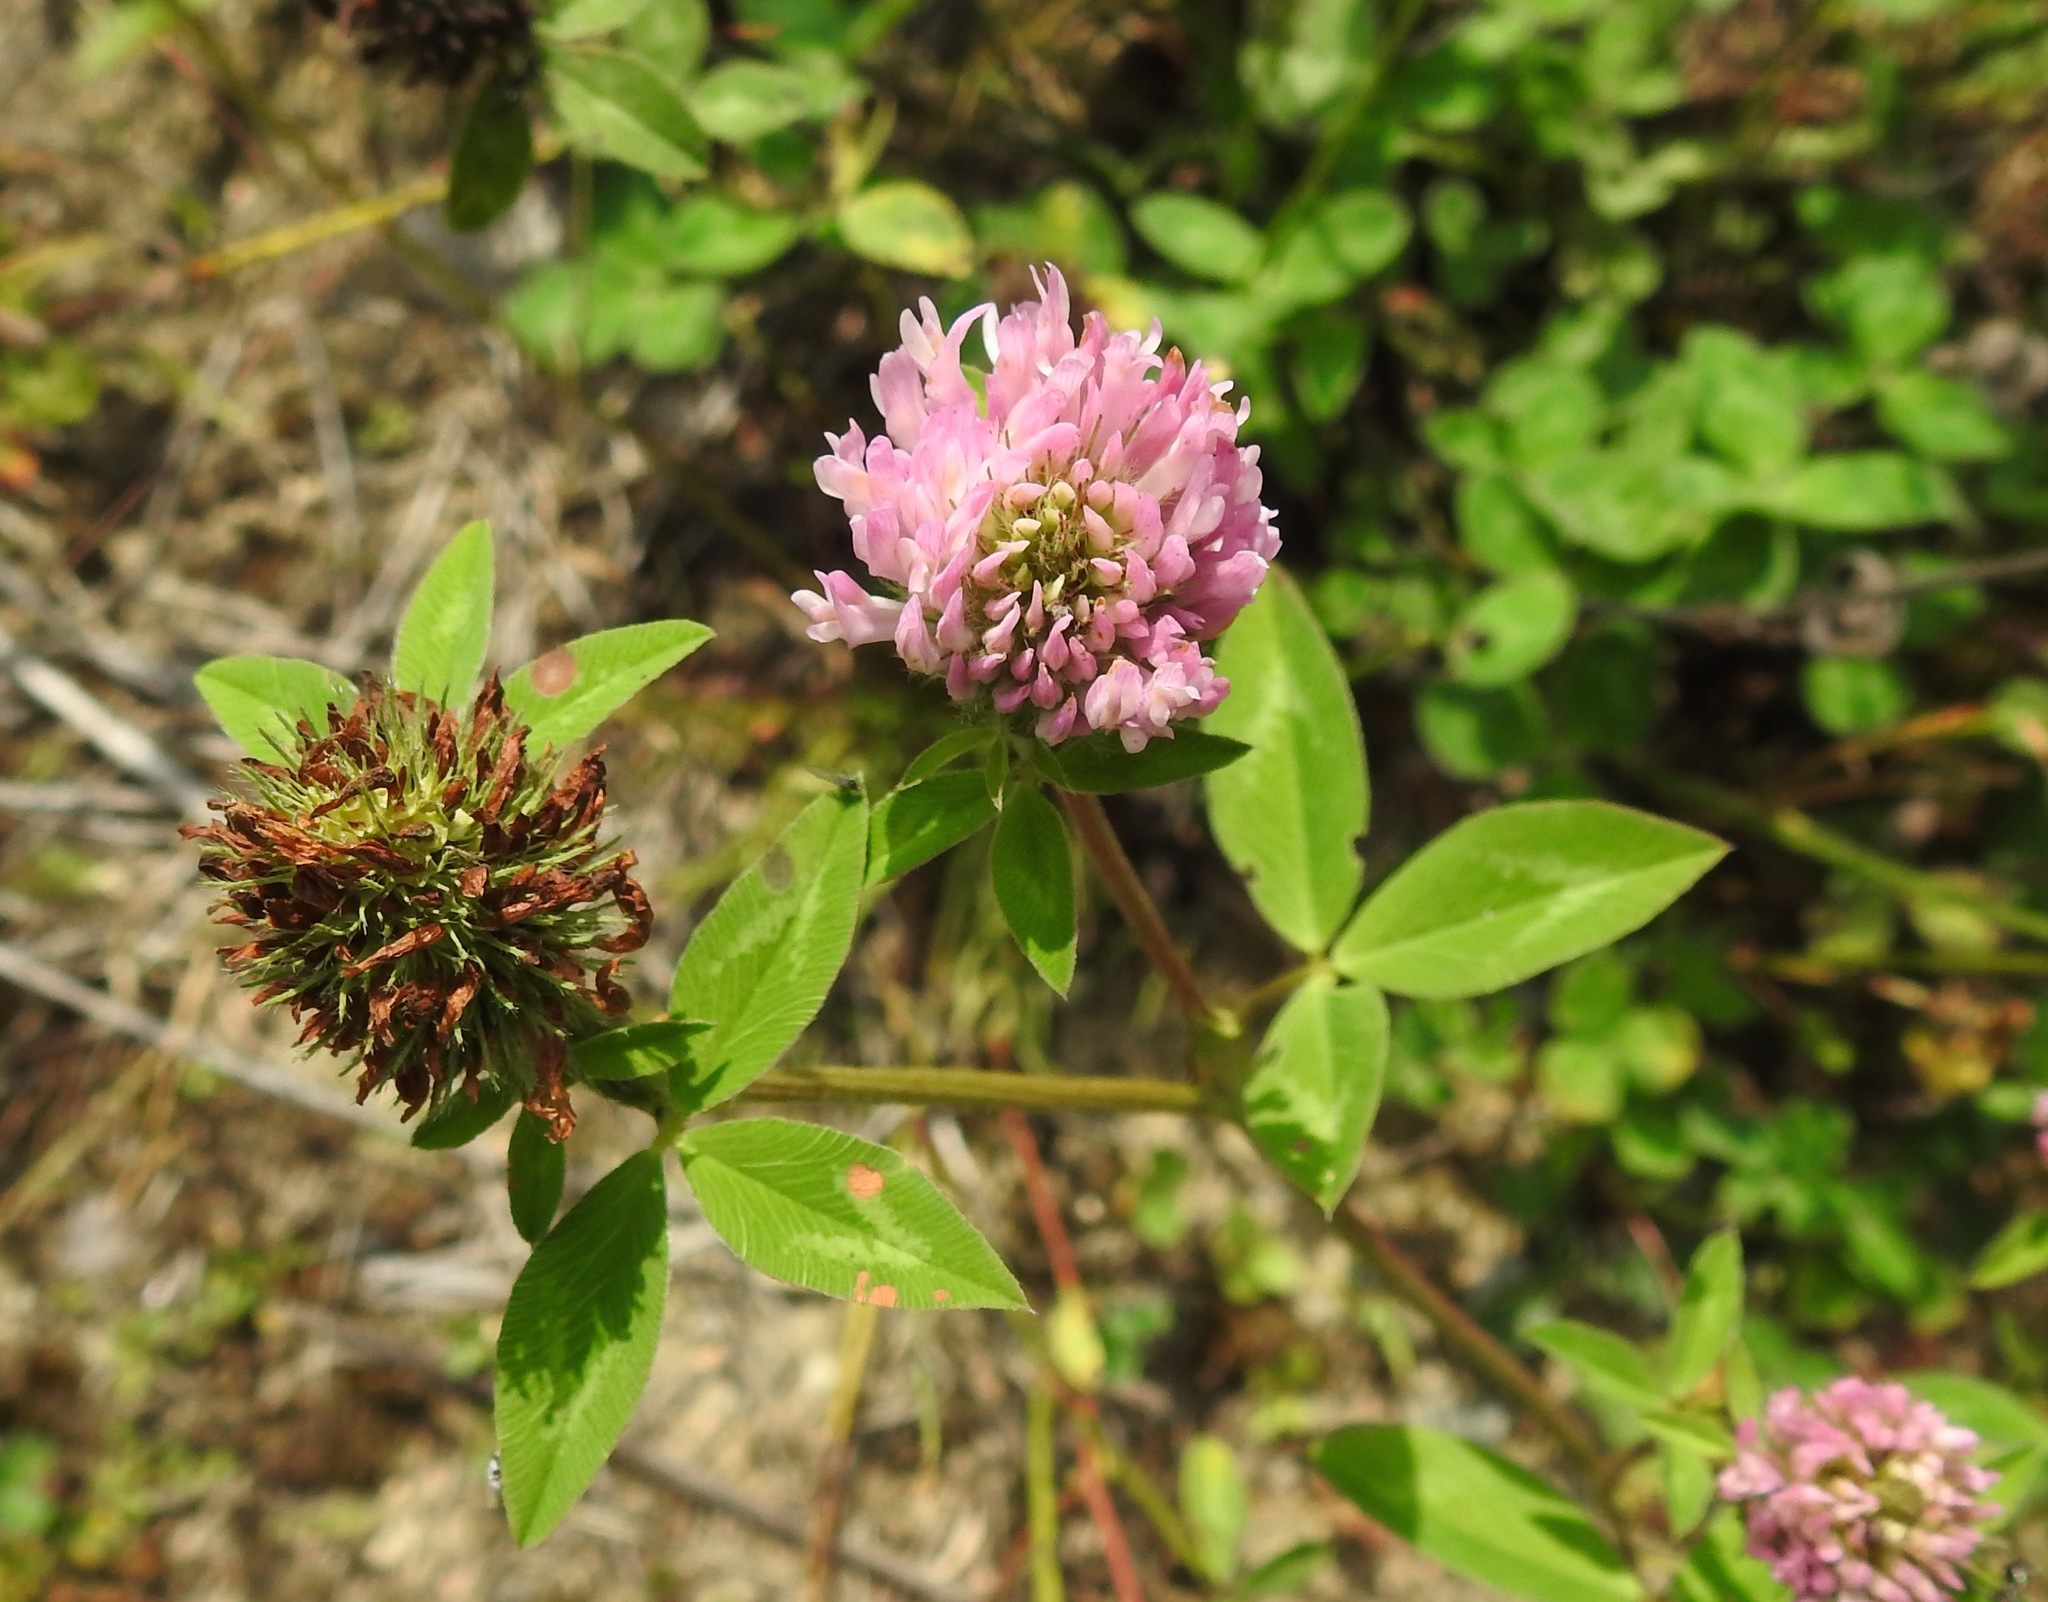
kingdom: Plantae
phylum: Tracheophyta
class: Magnoliopsida
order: Fabales
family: Fabaceae
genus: Trifolium
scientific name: Trifolium pratense
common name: Red clover
